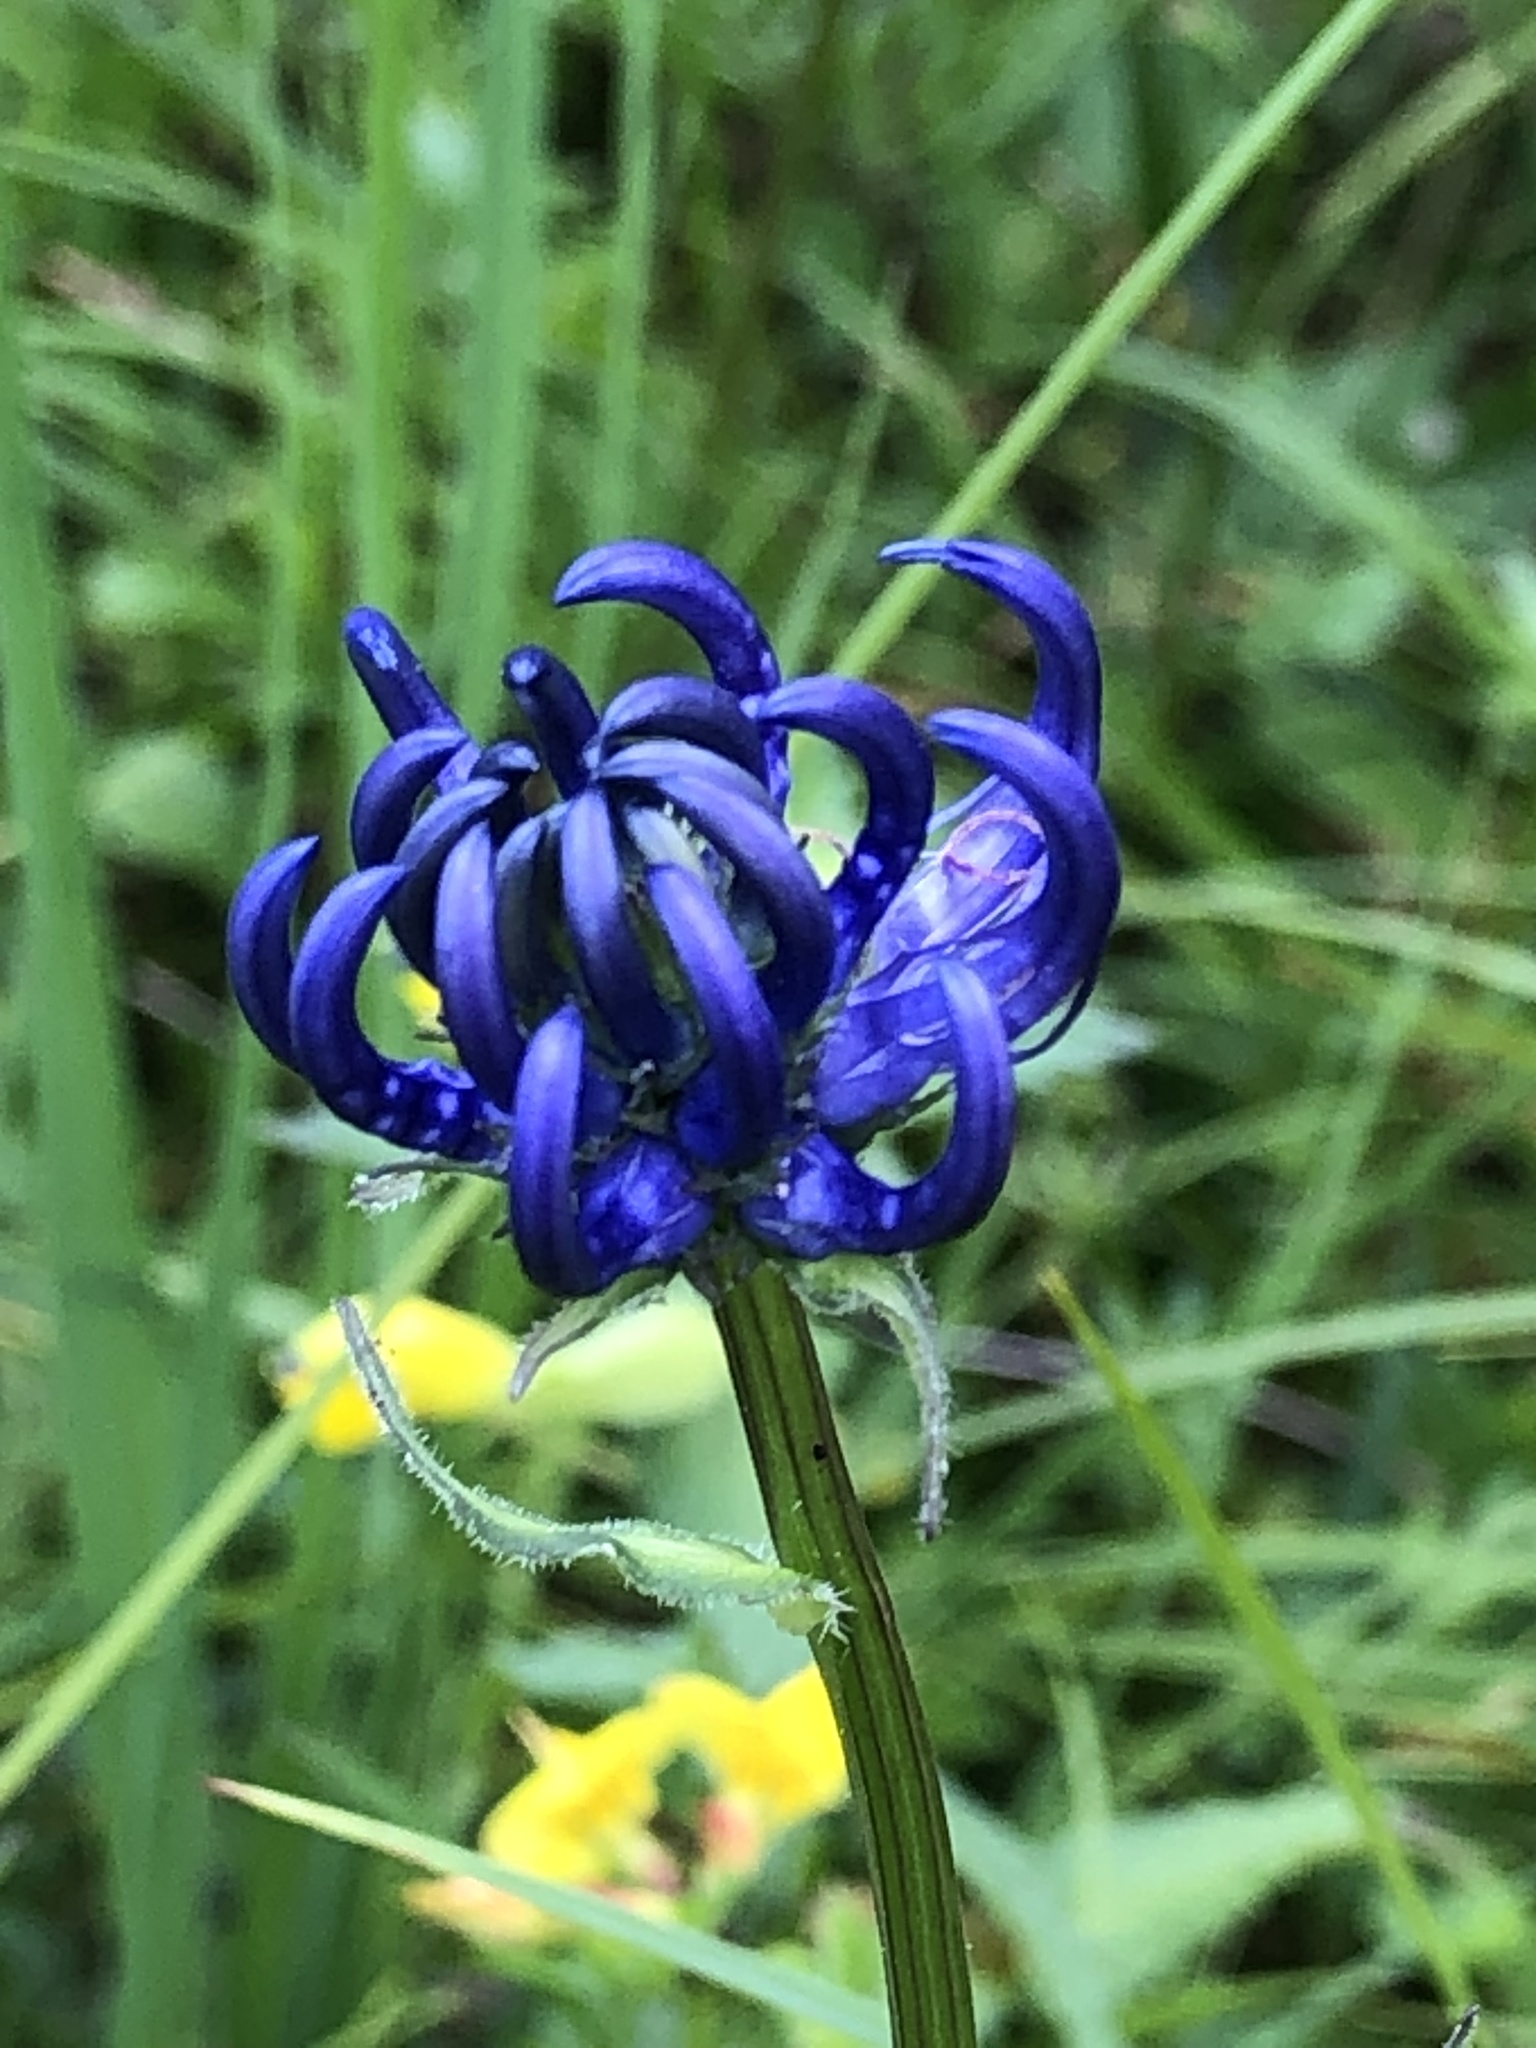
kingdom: Plantae
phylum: Tracheophyta
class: Magnoliopsida
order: Asterales
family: Campanulaceae
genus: Phyteuma
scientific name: Phyteuma orbiculare
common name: Round-headed rampion
